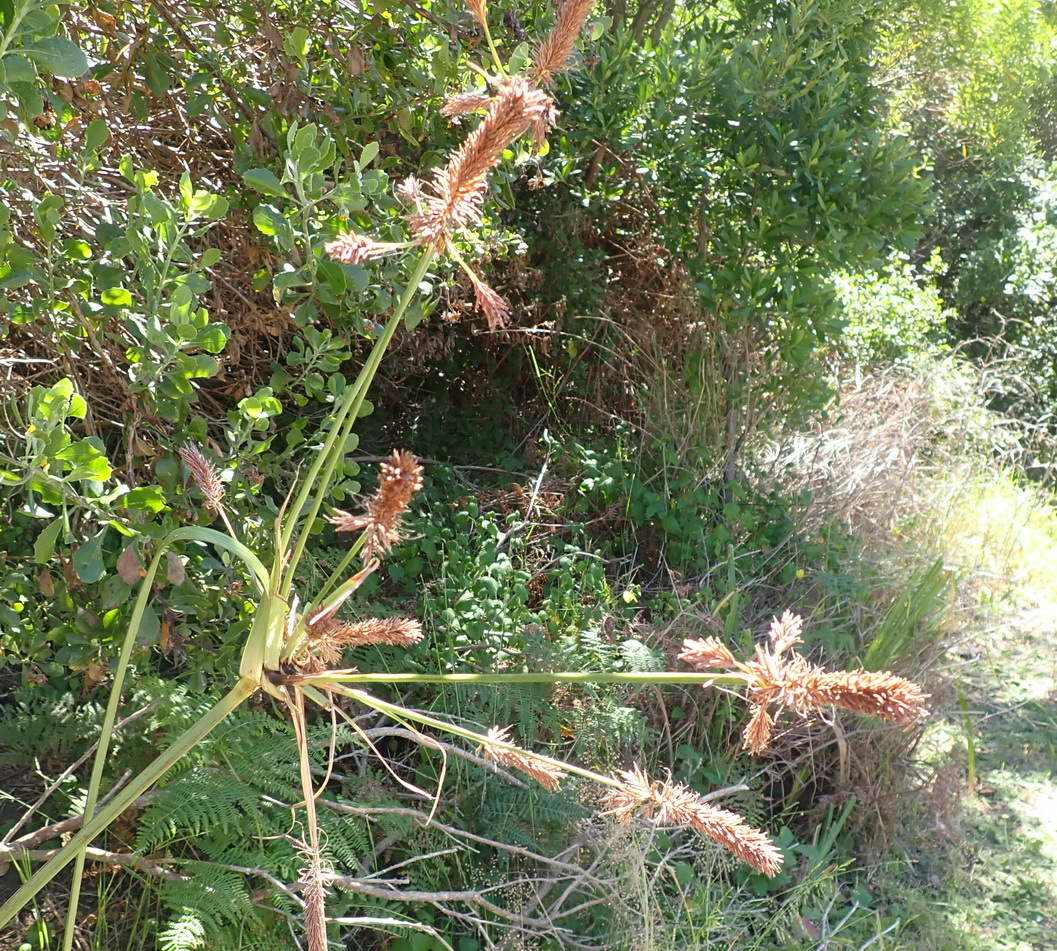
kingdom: Plantae
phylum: Tracheophyta
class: Liliopsida
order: Poales
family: Cyperaceae
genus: Cyperus
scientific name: Cyperus thunbergii
